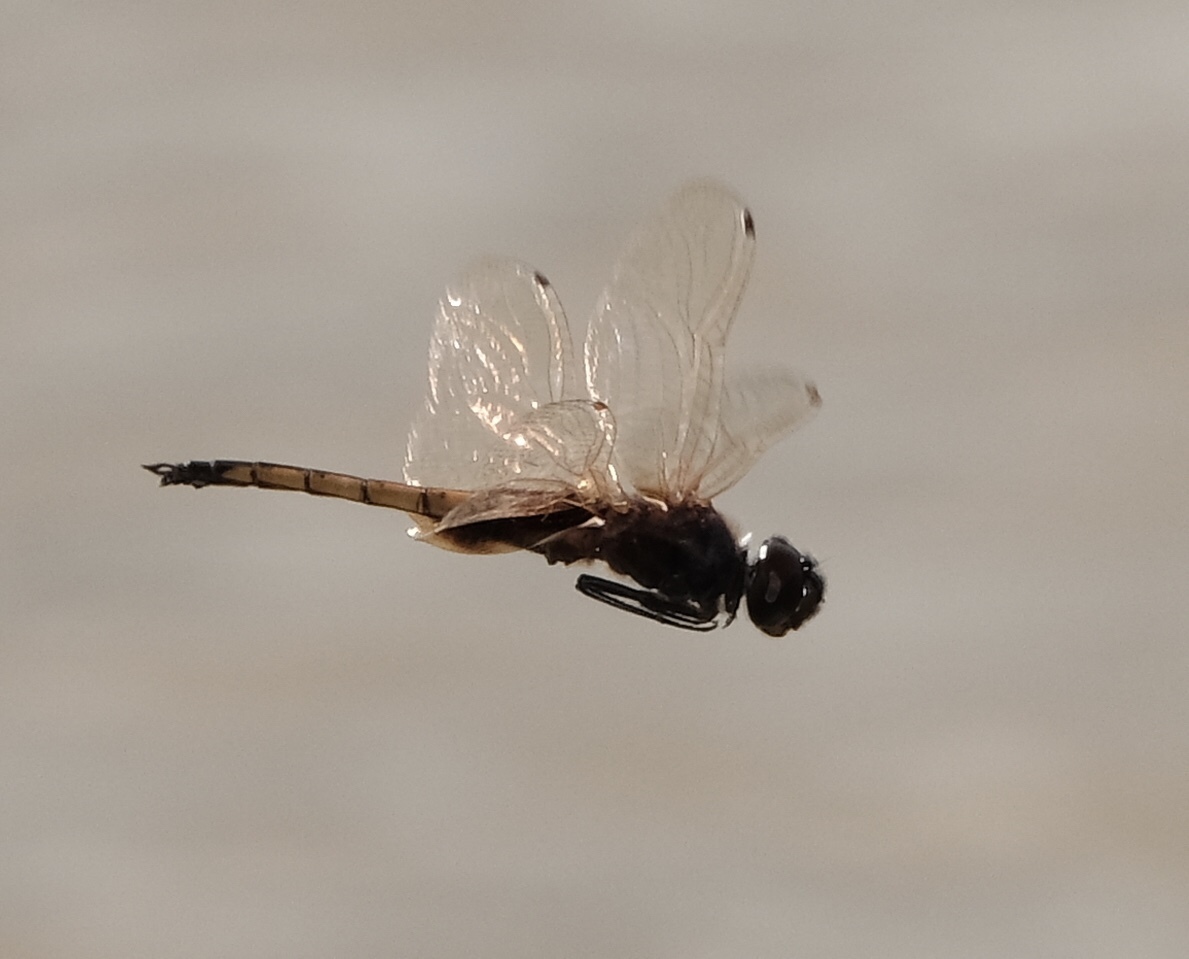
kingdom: Animalia
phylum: Arthropoda
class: Insecta
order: Odonata
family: Libellulidae
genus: Miathyria
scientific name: Miathyria marcella
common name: Hyacinth glider
